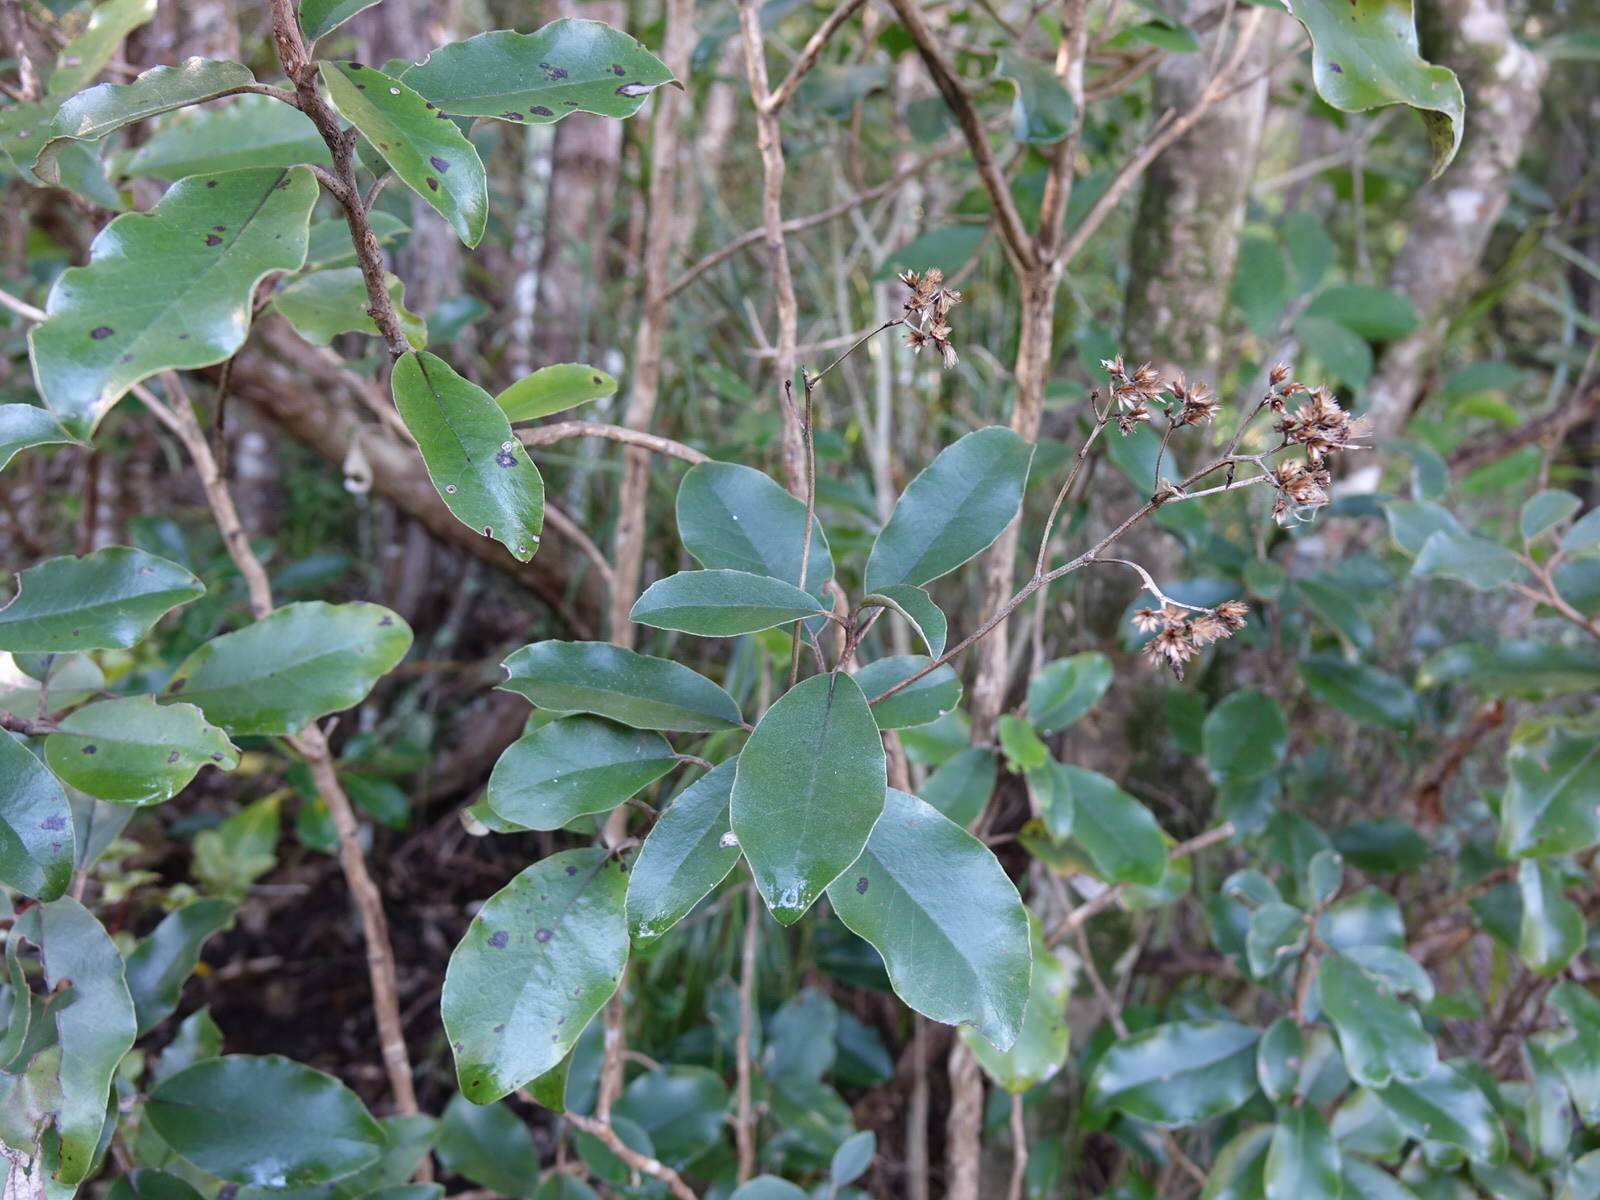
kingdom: Plantae
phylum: Tracheophyta
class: Magnoliopsida
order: Asterales
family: Asteraceae
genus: Olearia
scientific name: Olearia furfuracea
